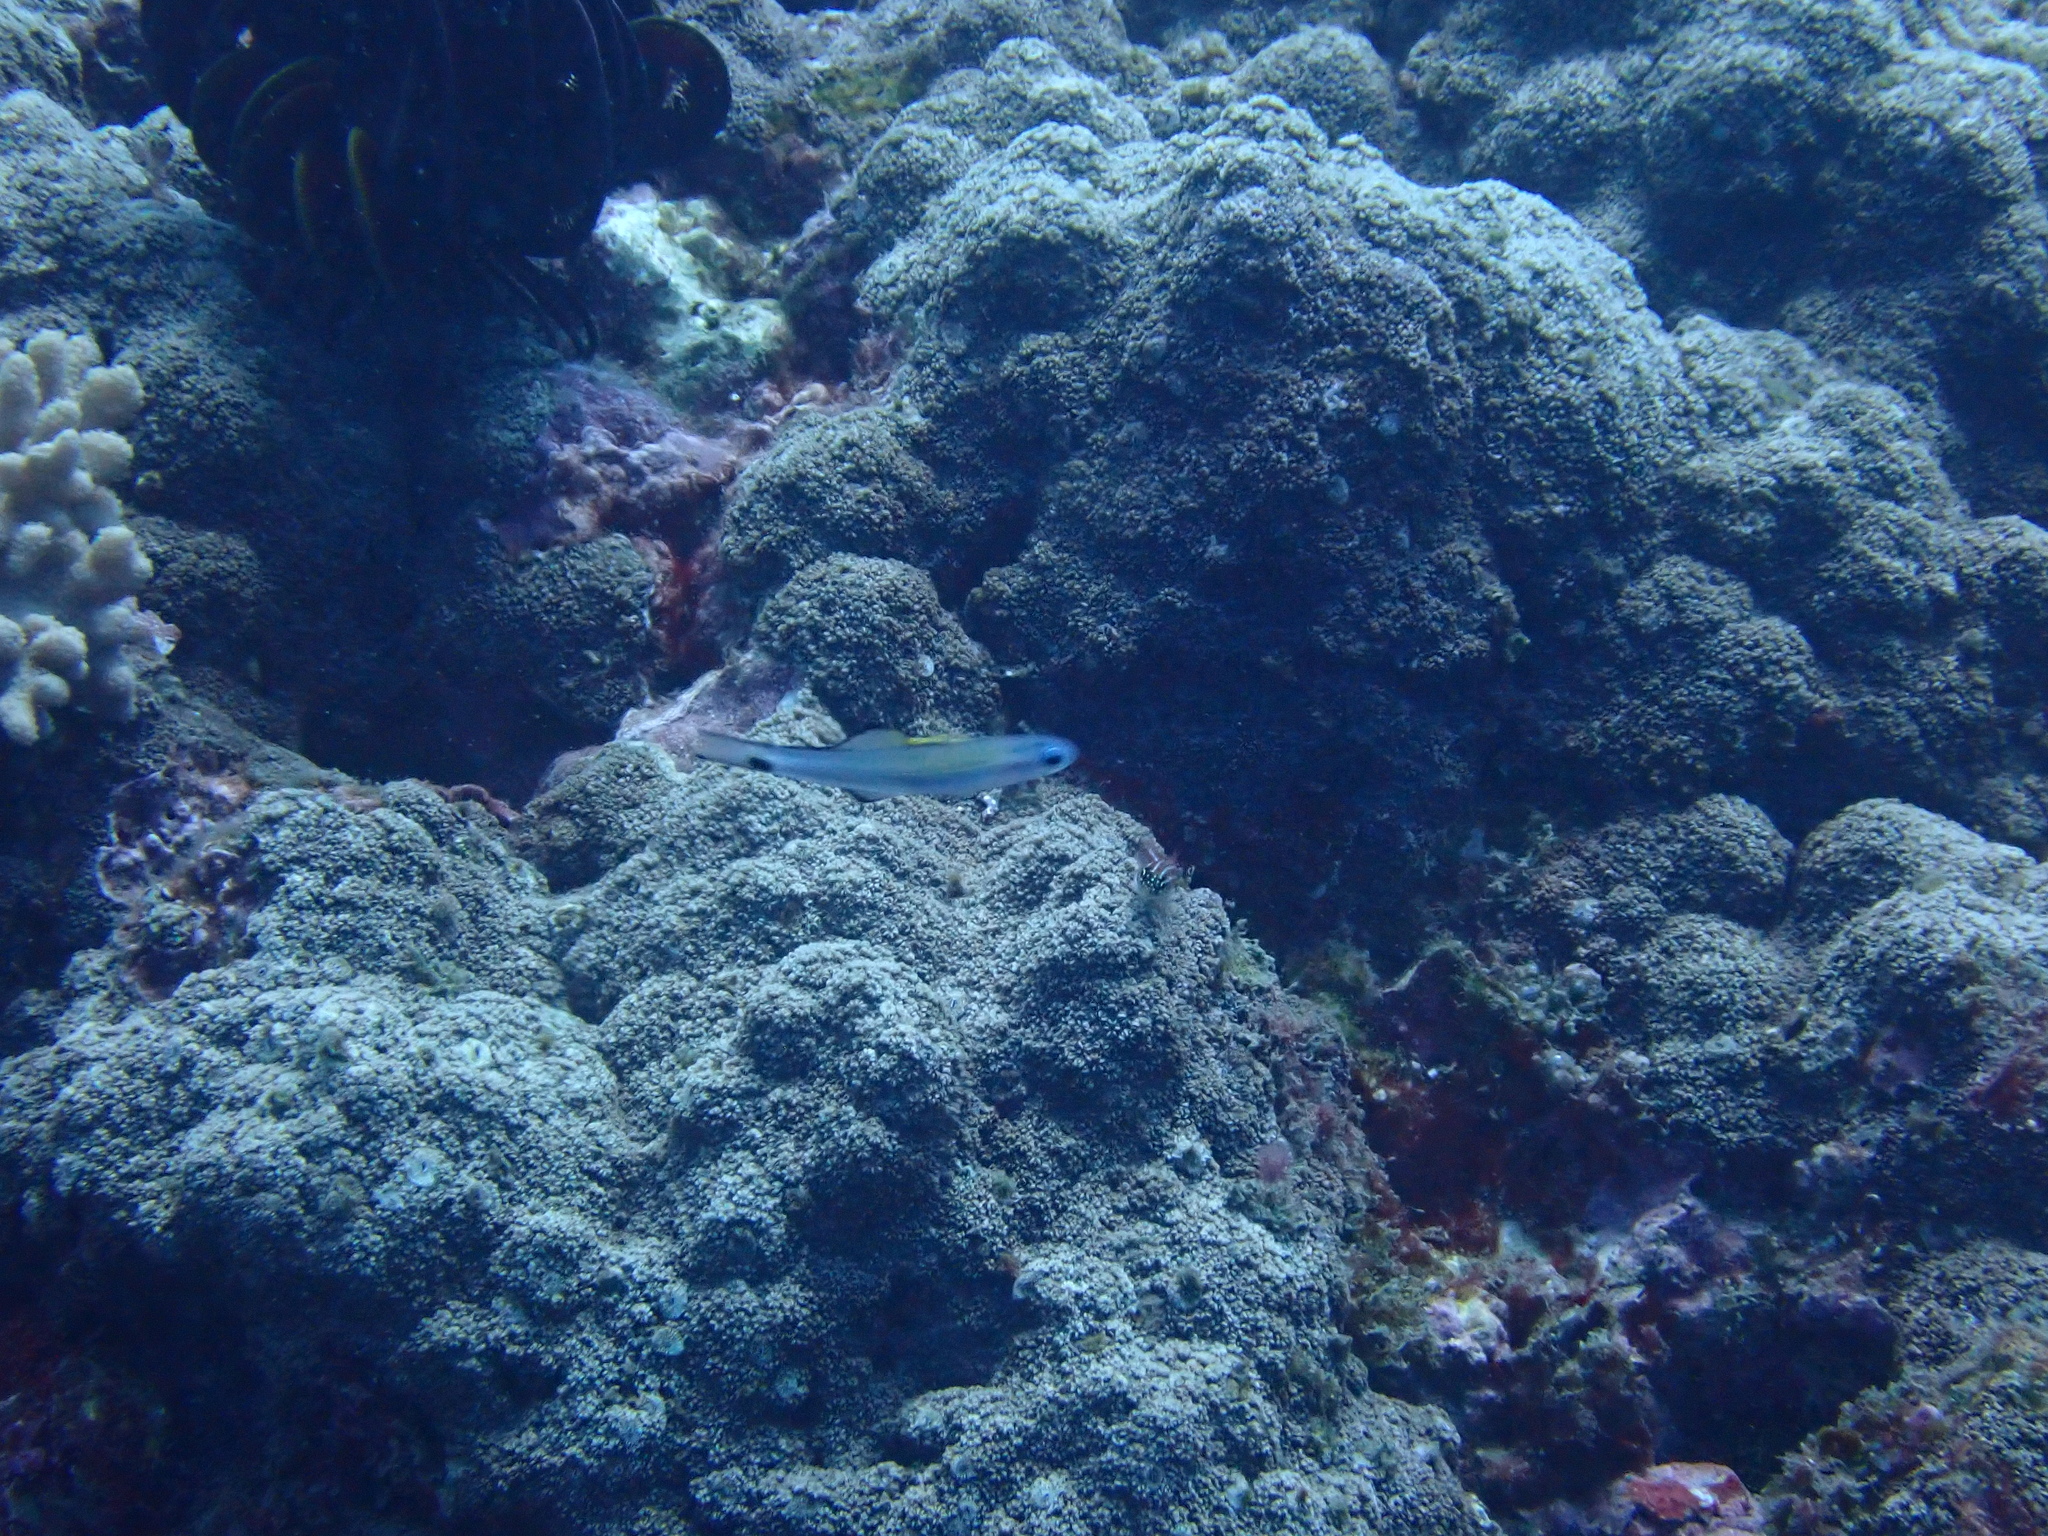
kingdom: Animalia
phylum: Chordata
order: Perciformes
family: Microdesmidae
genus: Ptereleotris
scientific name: Ptereleotris evides
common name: Blackfin dartfish
